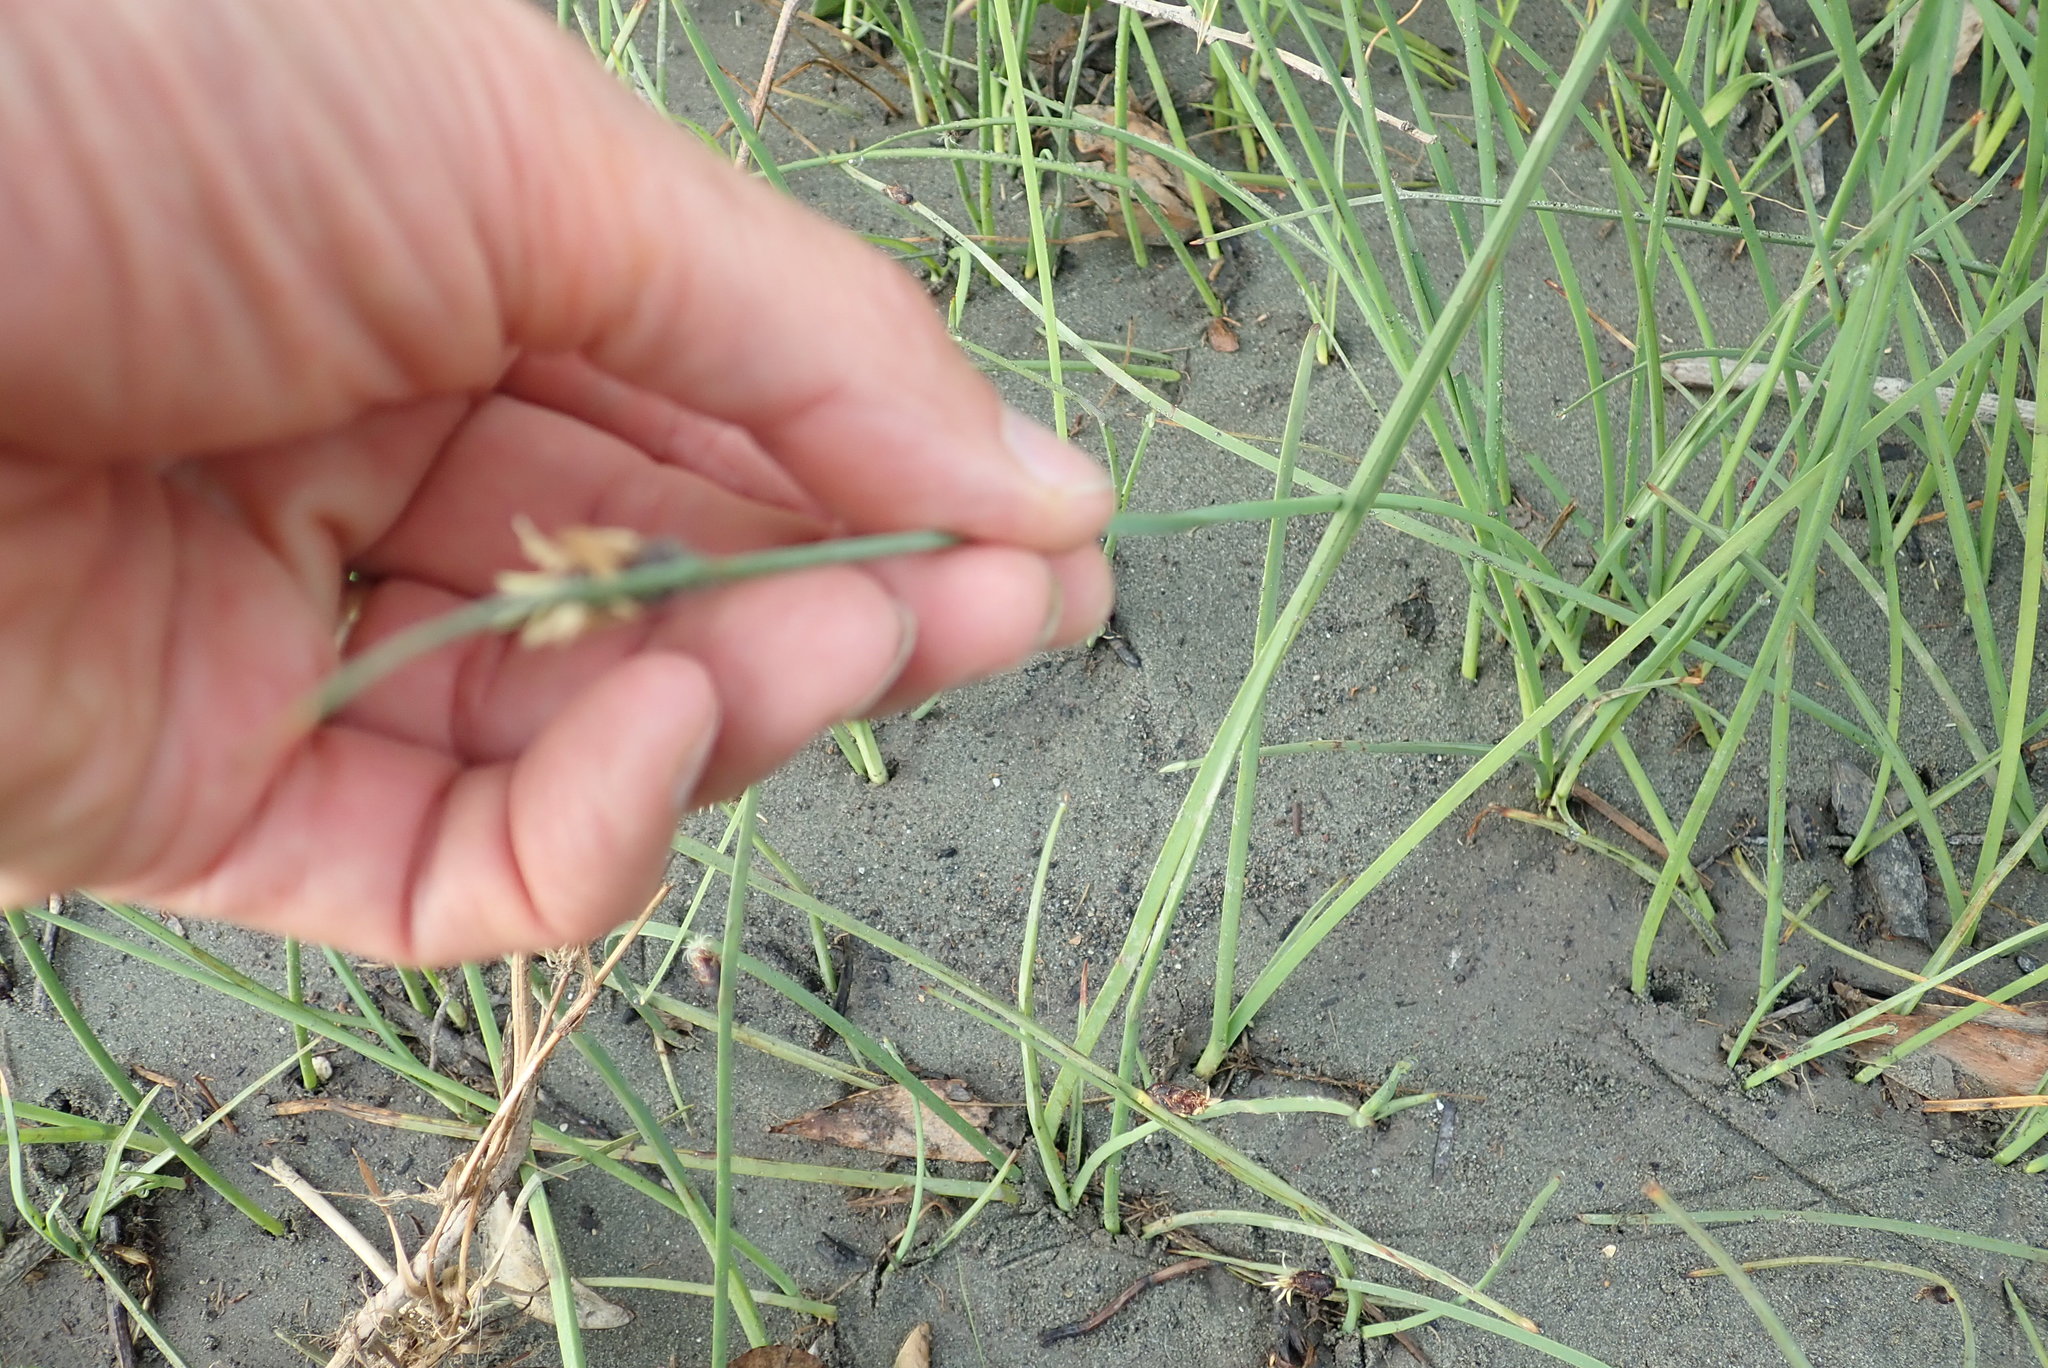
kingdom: Plantae
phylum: Tracheophyta
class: Liliopsida
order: Poales
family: Cyperaceae
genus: Schoenoplectus
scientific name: Schoenoplectus pungens
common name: Sharp club-rush
